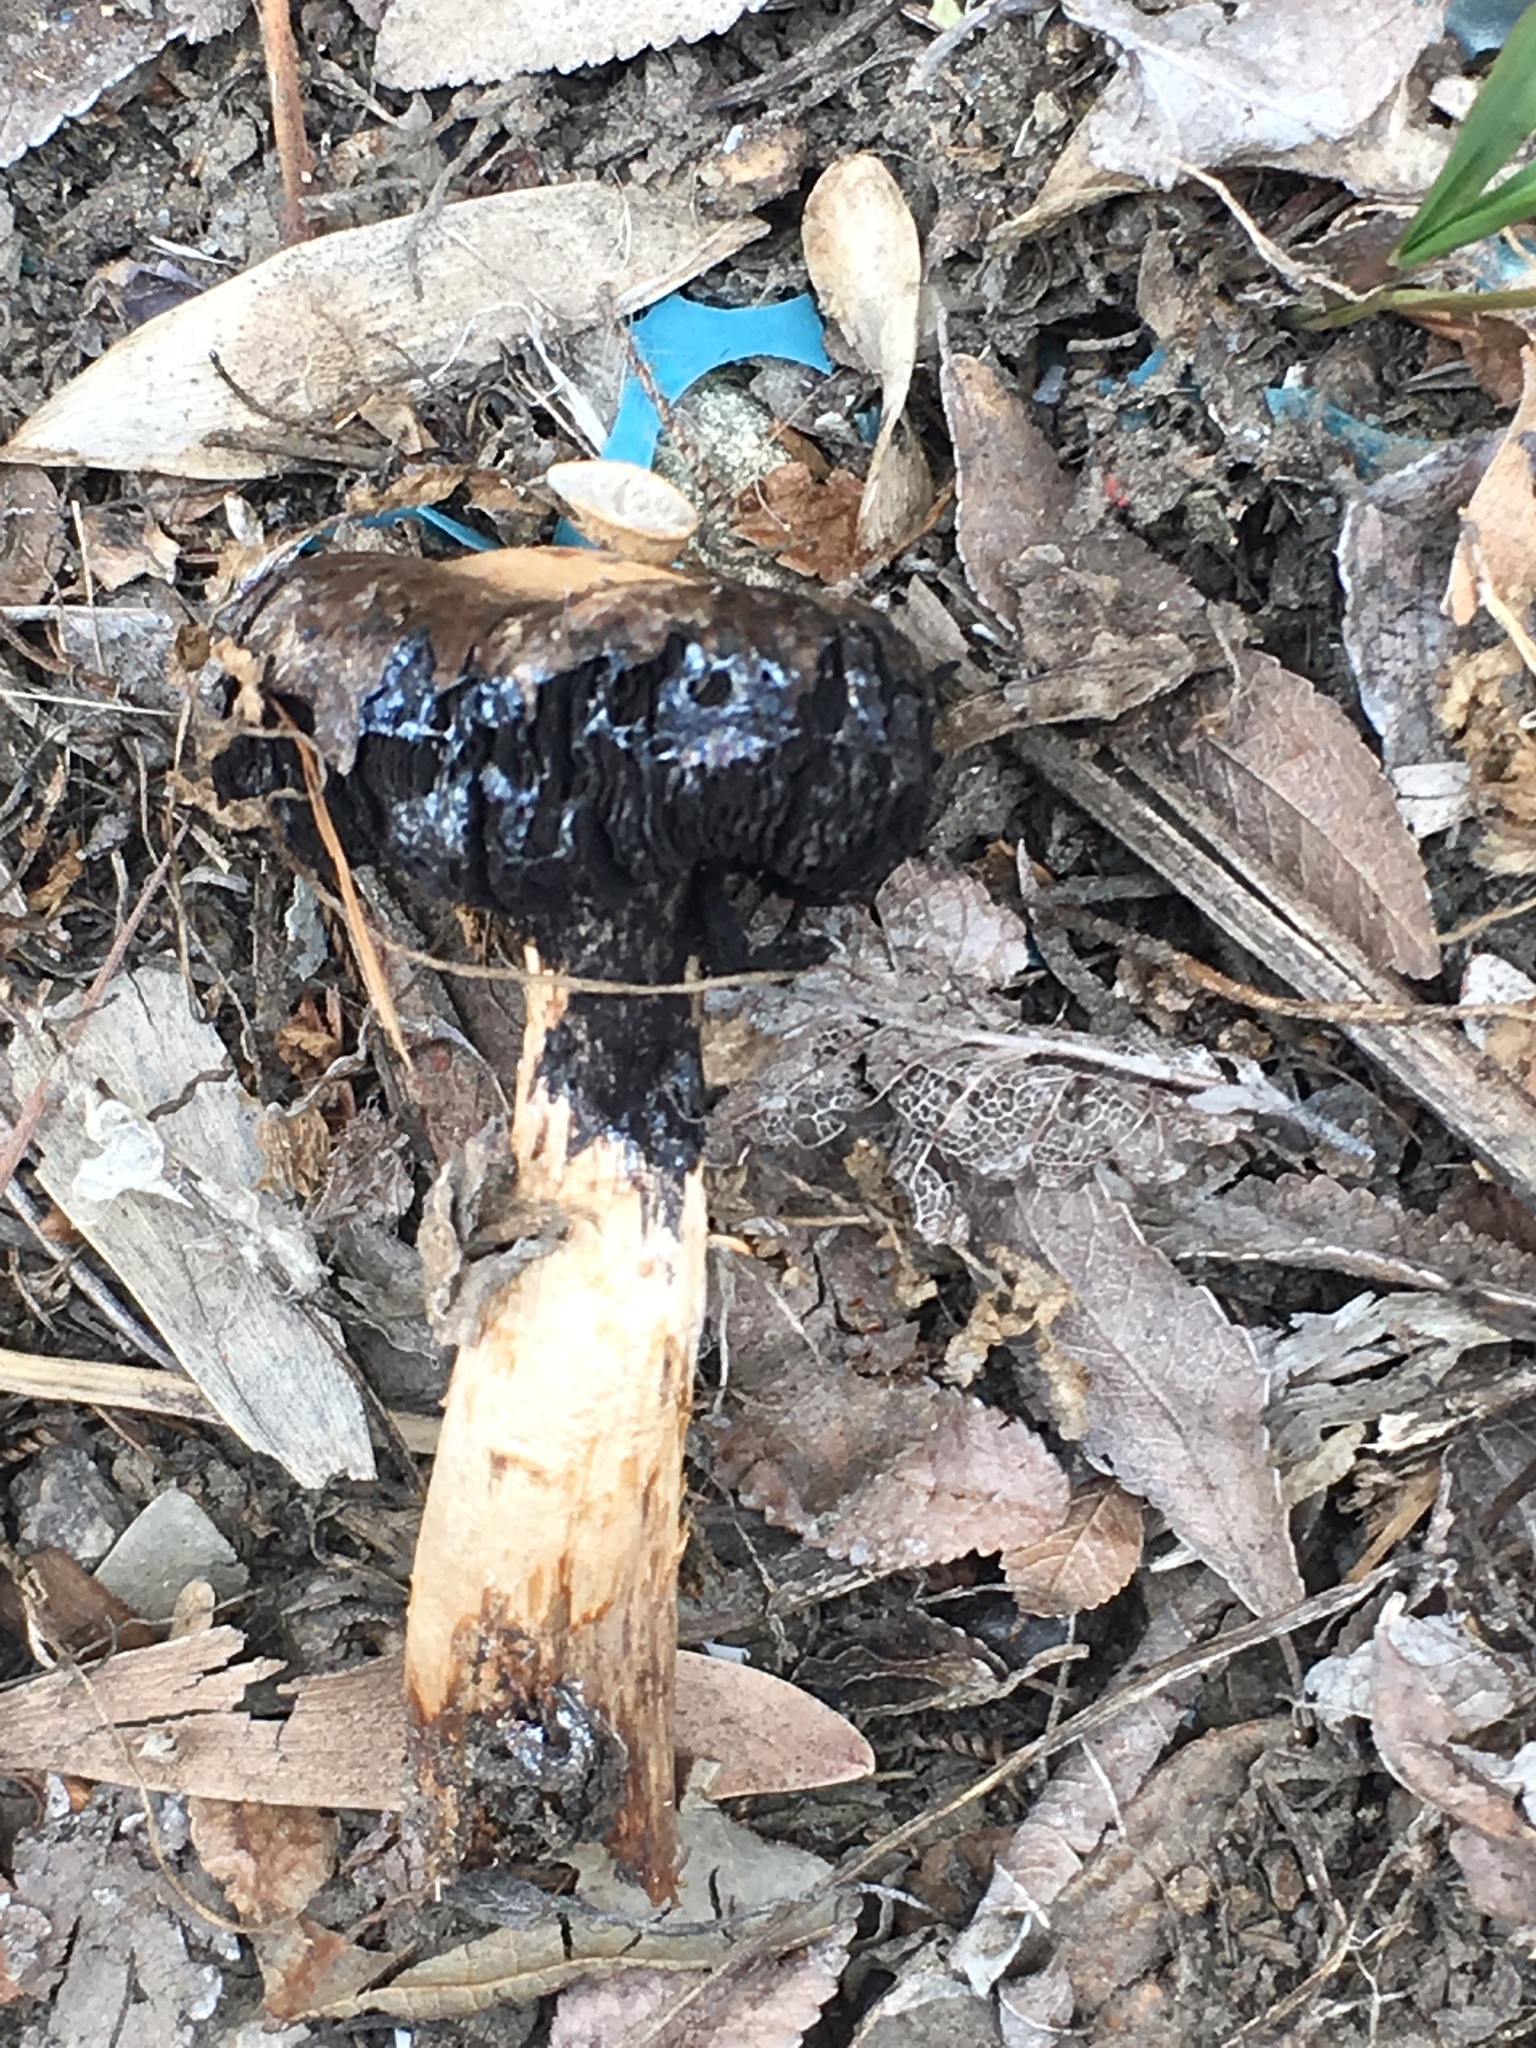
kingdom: Fungi
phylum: Basidiomycota
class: Agaricomycetes
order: Agaricales
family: Agaricaceae
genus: Agaricus
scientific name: Agaricus zelleri
